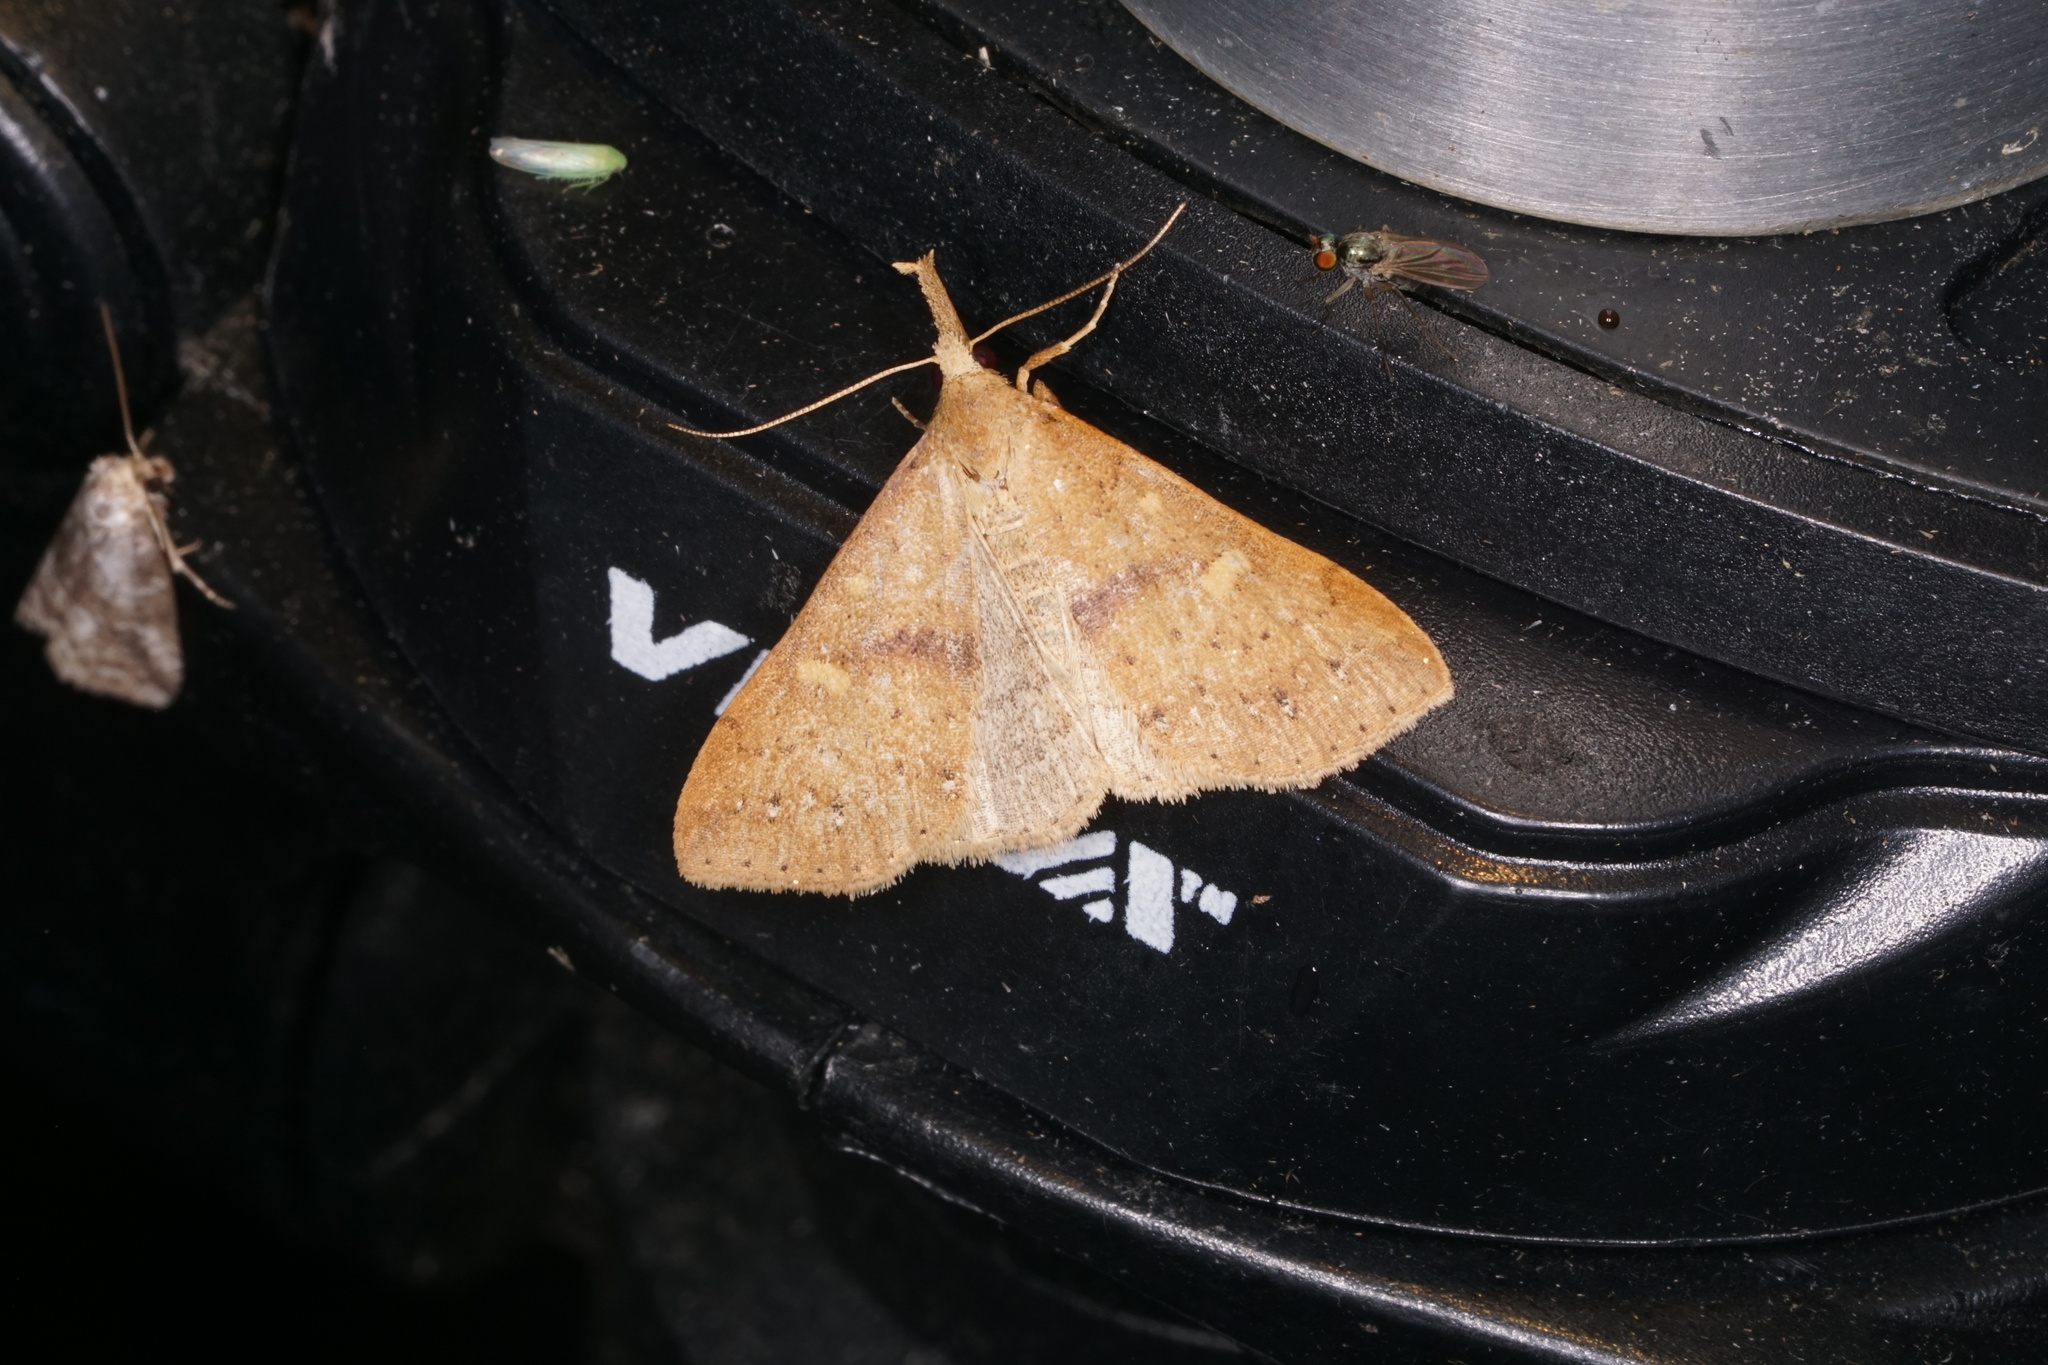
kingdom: Animalia
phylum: Arthropoda
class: Insecta
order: Lepidoptera
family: Erebidae
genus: Renia
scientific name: Renia salusalis
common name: Dotted renia moth
